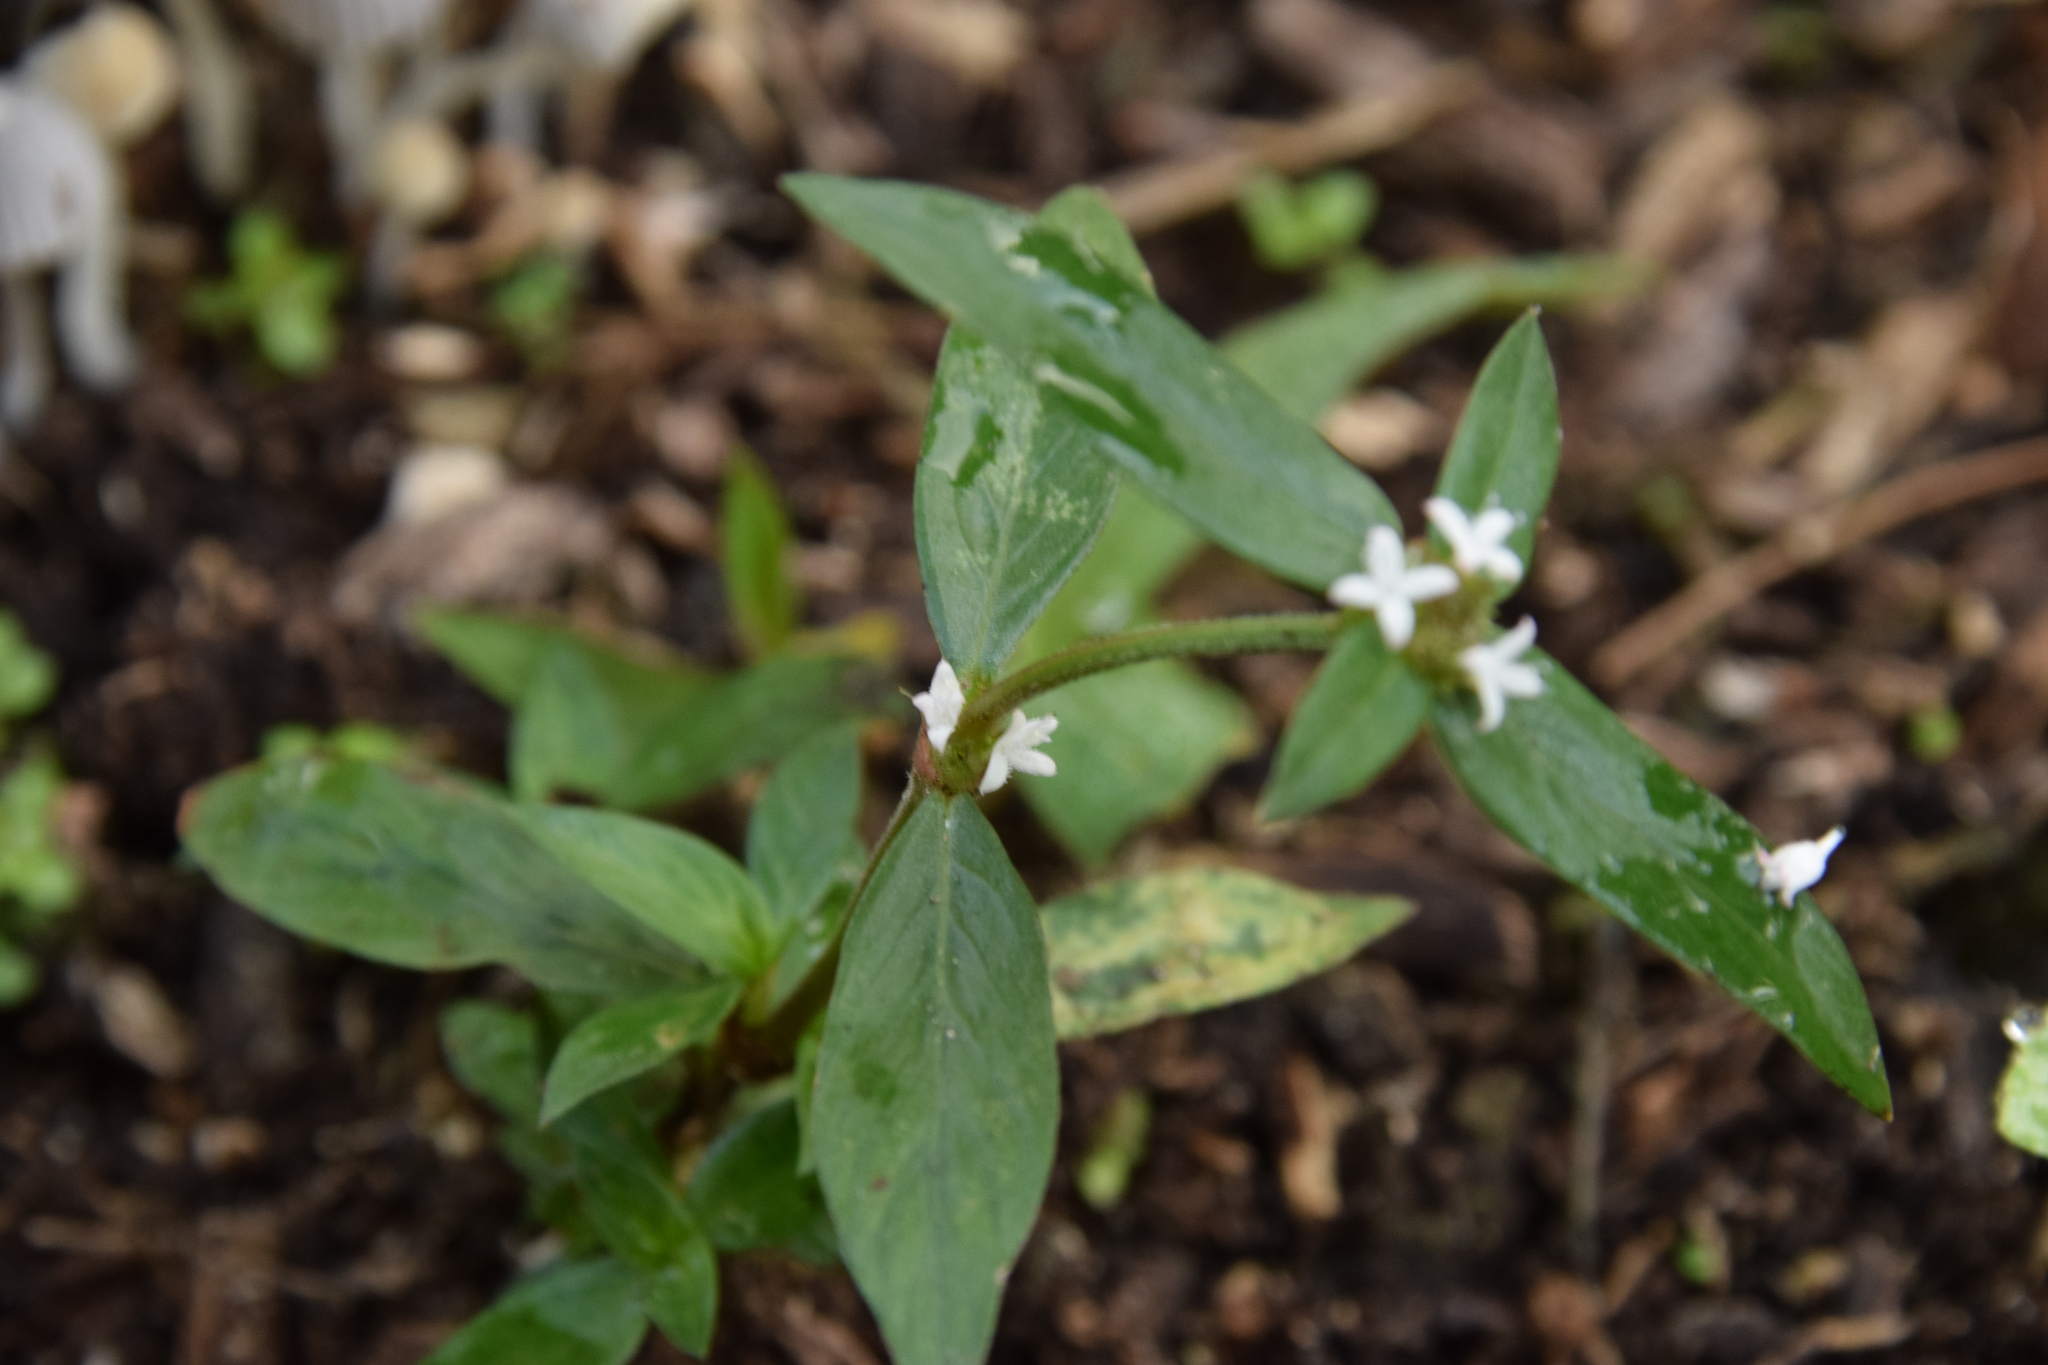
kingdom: Plantae
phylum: Tracheophyta
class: Magnoliopsida
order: Gentianales
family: Rubiaceae
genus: Spermacoce
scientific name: Spermacoce remota
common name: Woodland false buttonweed
